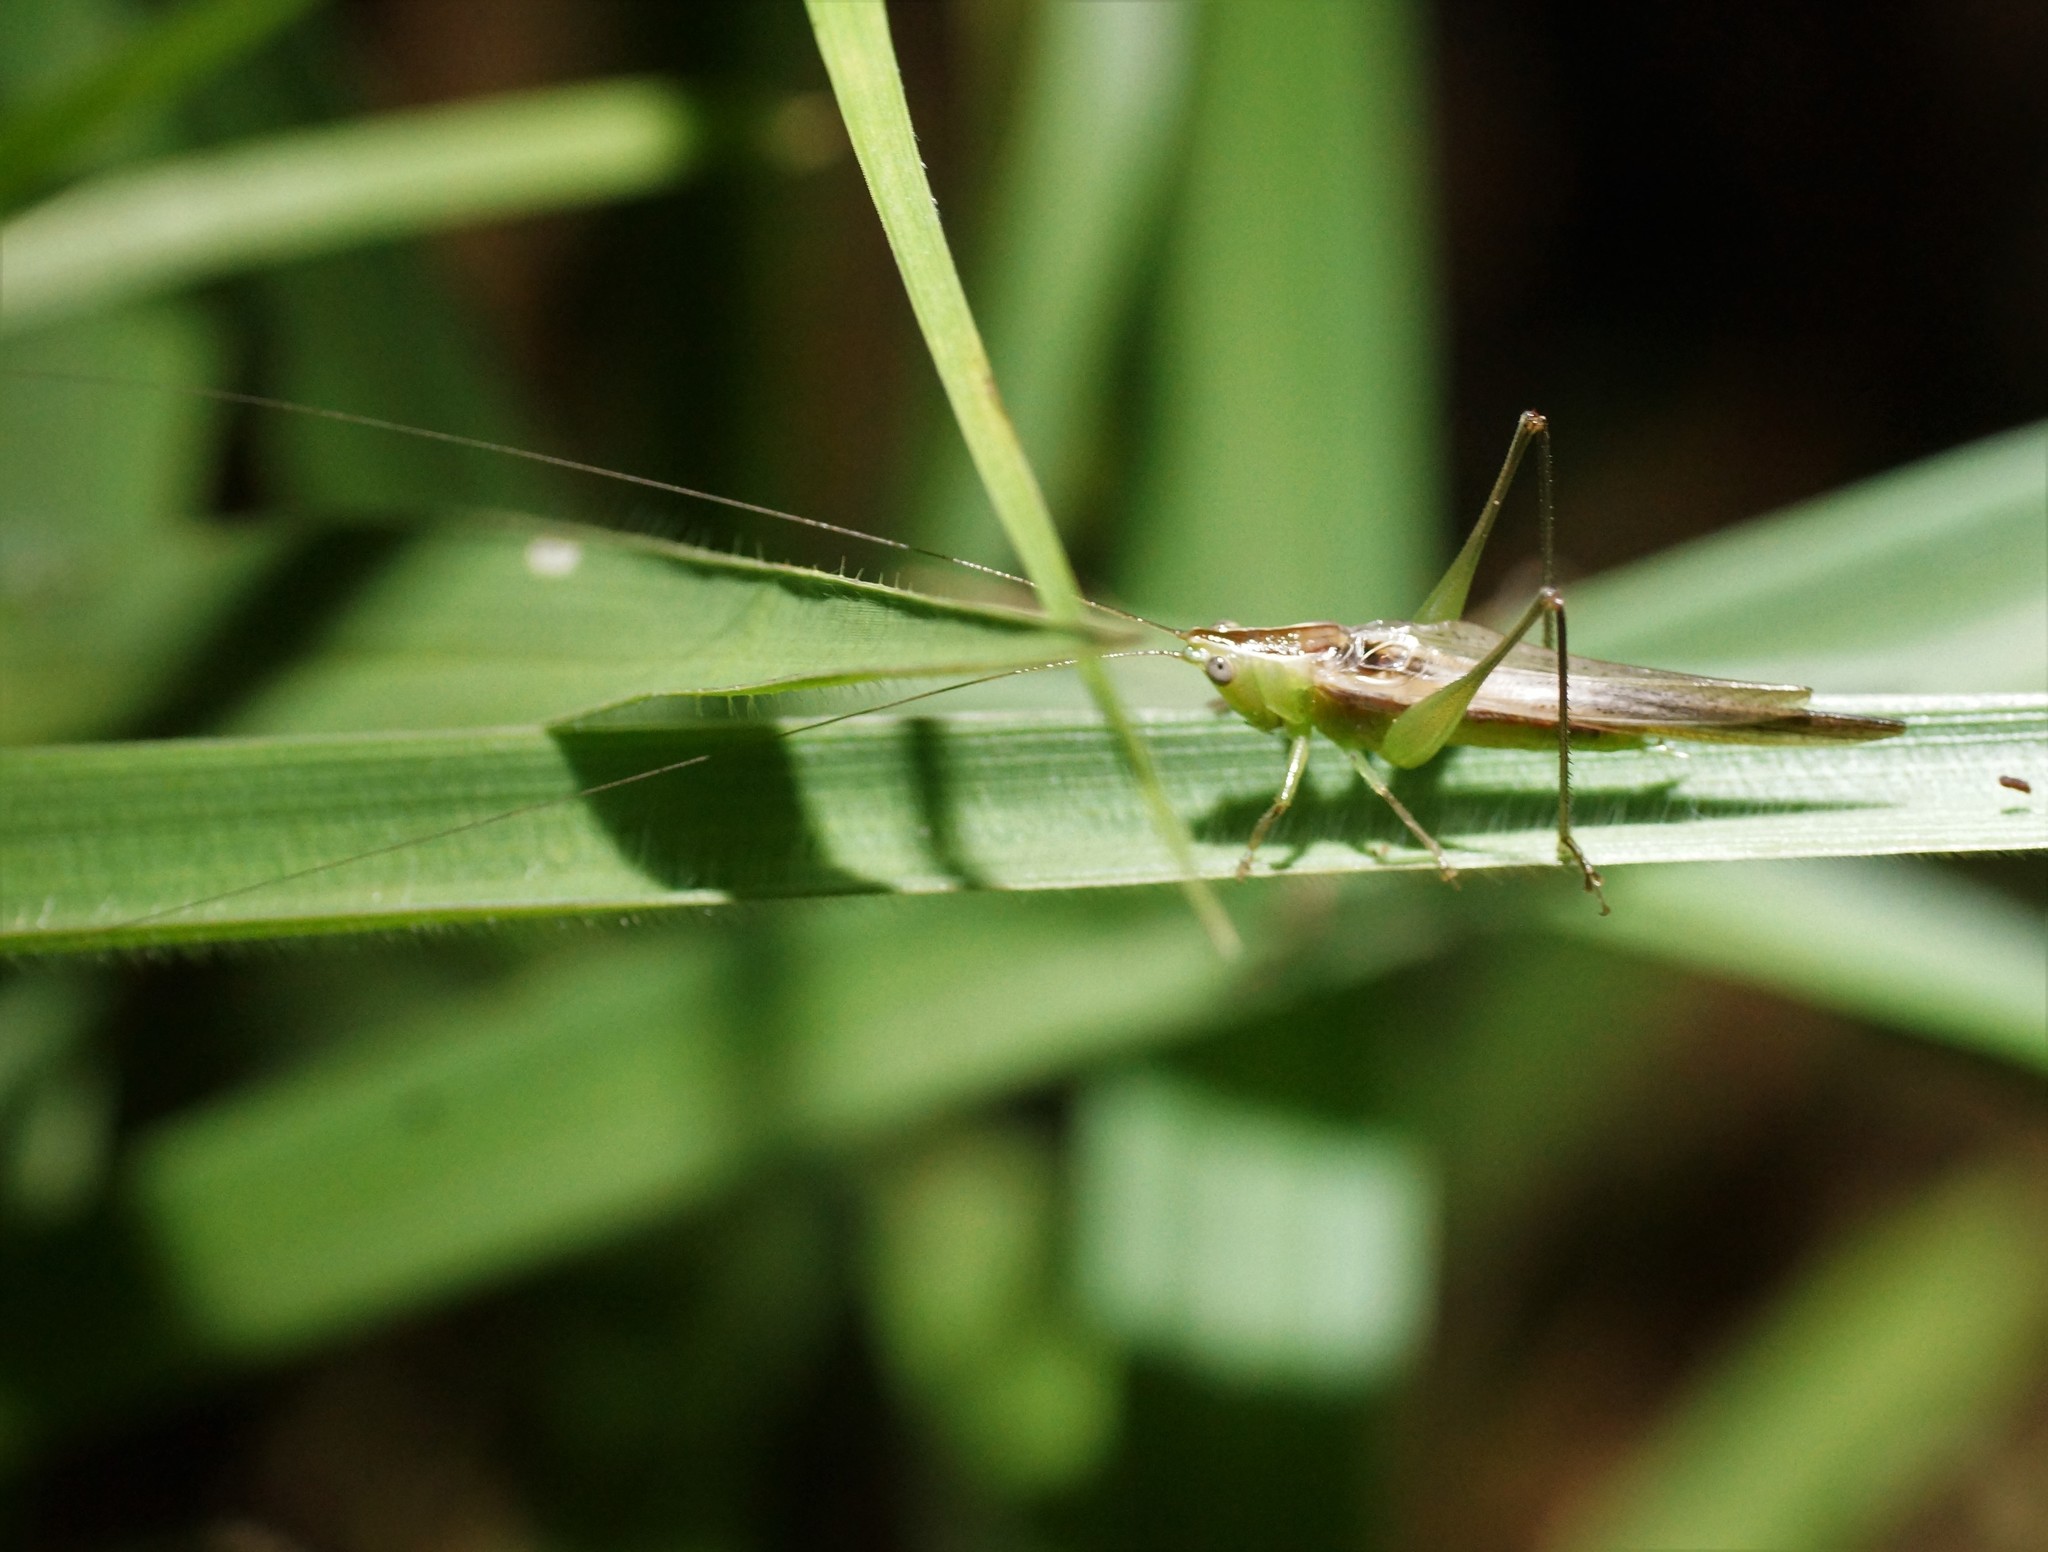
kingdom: Animalia
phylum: Arthropoda
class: Insecta
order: Orthoptera
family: Tettigoniidae
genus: Conocephalus
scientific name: Conocephalus upoluensis
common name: Upolu meadow katydid
